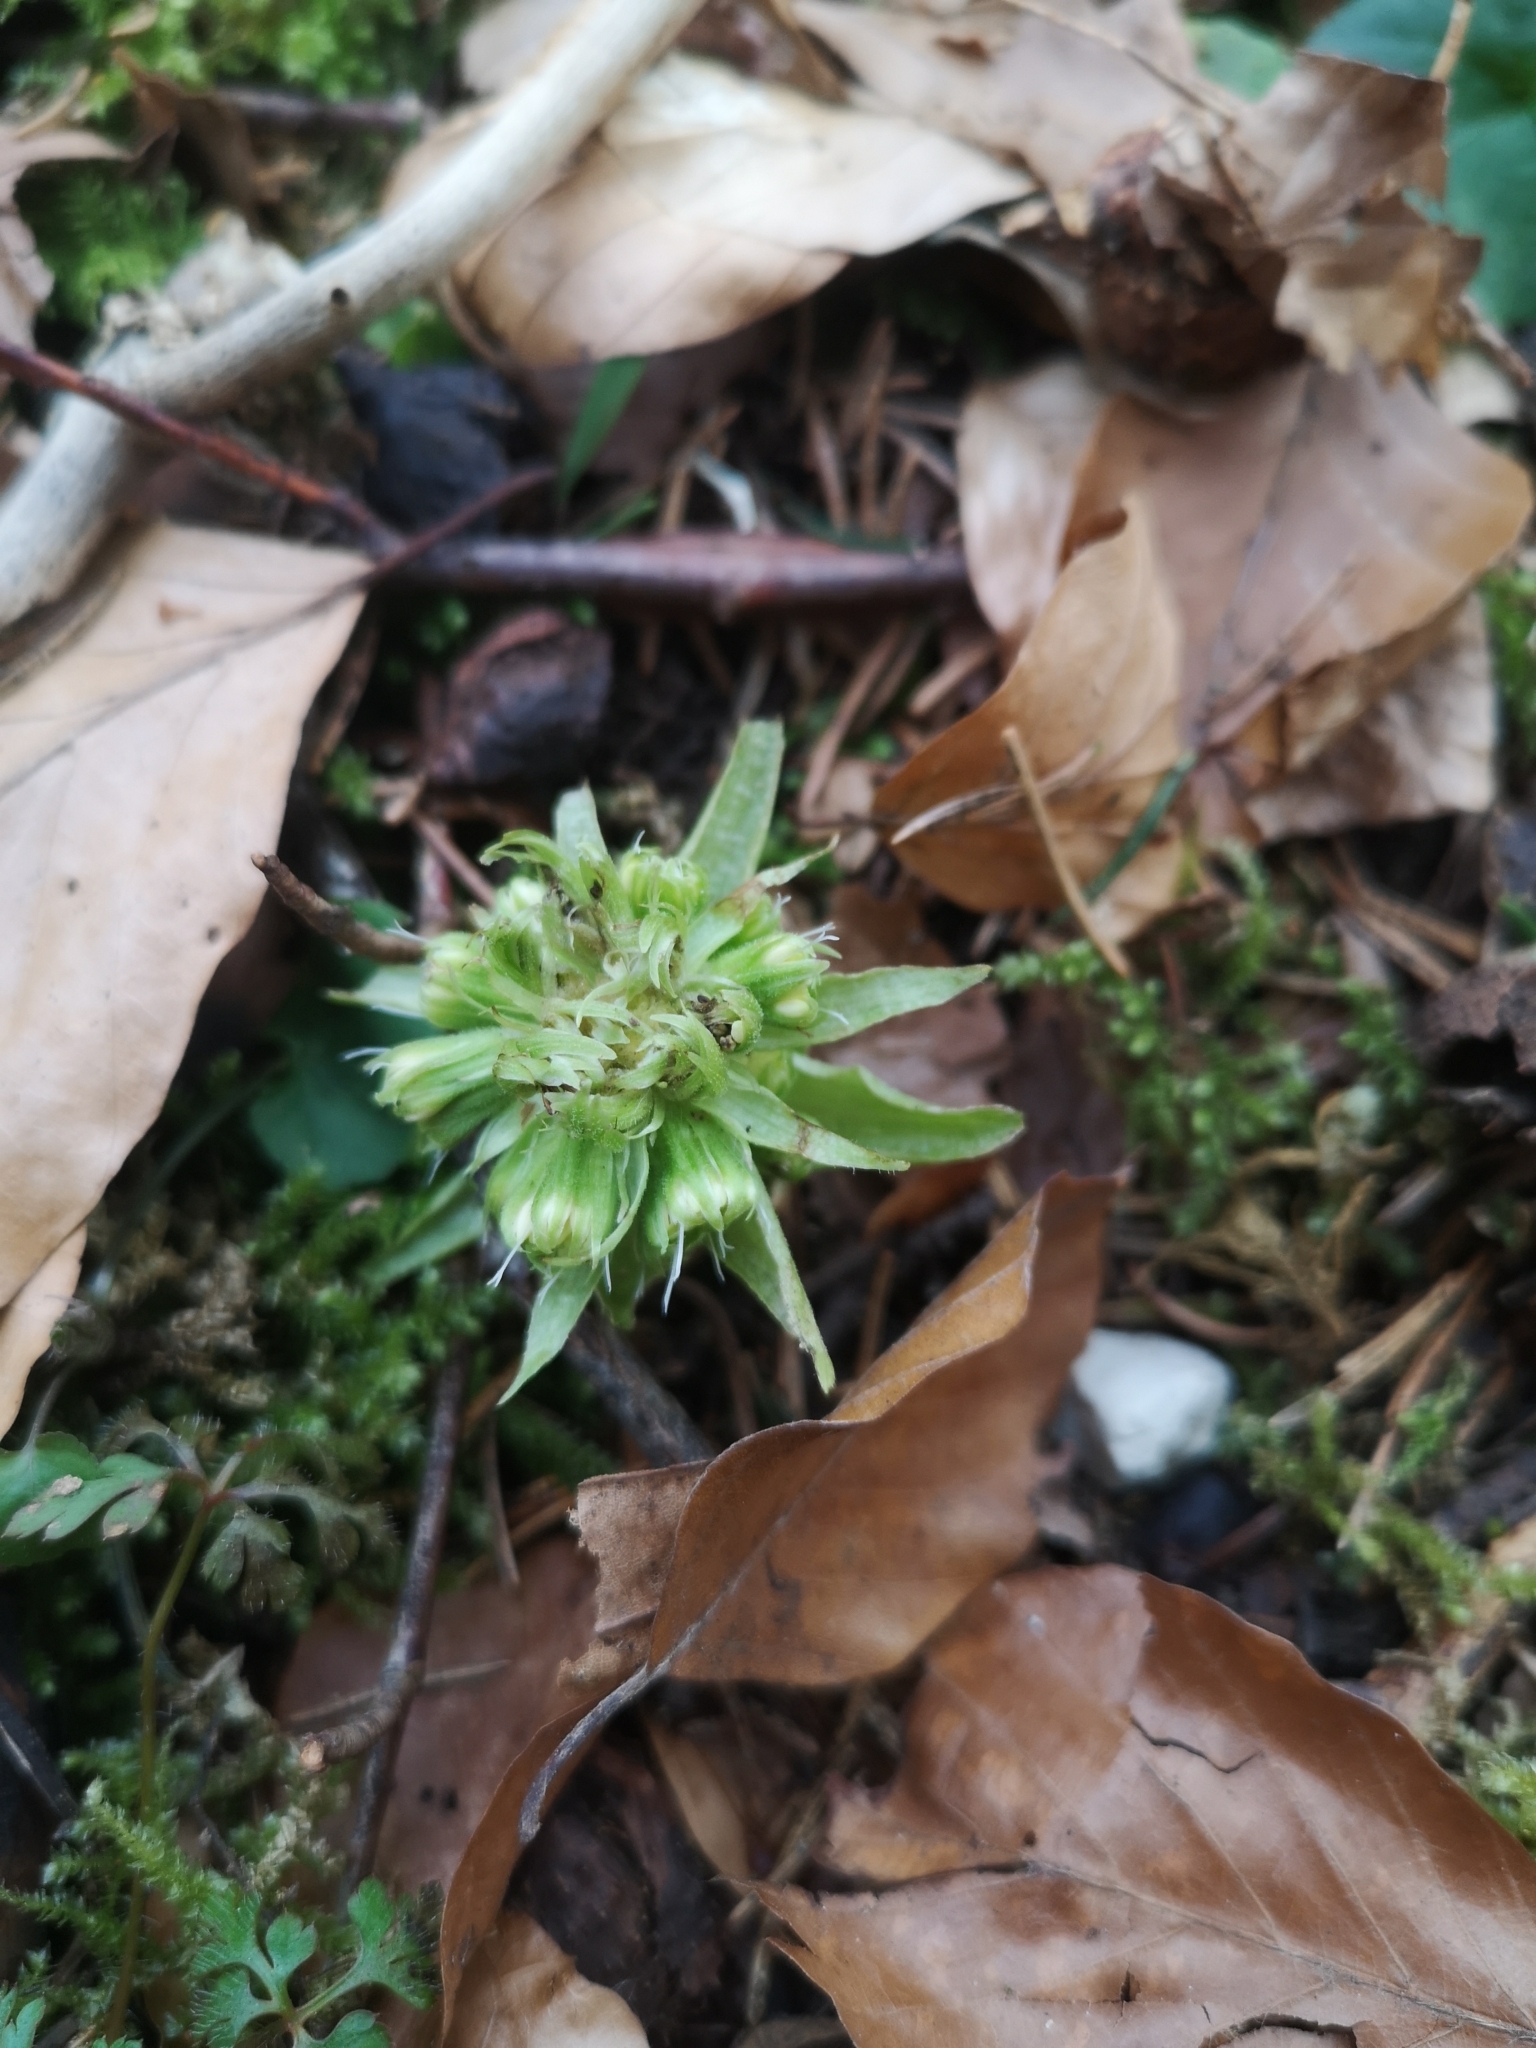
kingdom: Plantae
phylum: Tracheophyta
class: Magnoliopsida
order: Asterales
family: Asteraceae
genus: Petasites
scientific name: Petasites albus
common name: White butterbur
